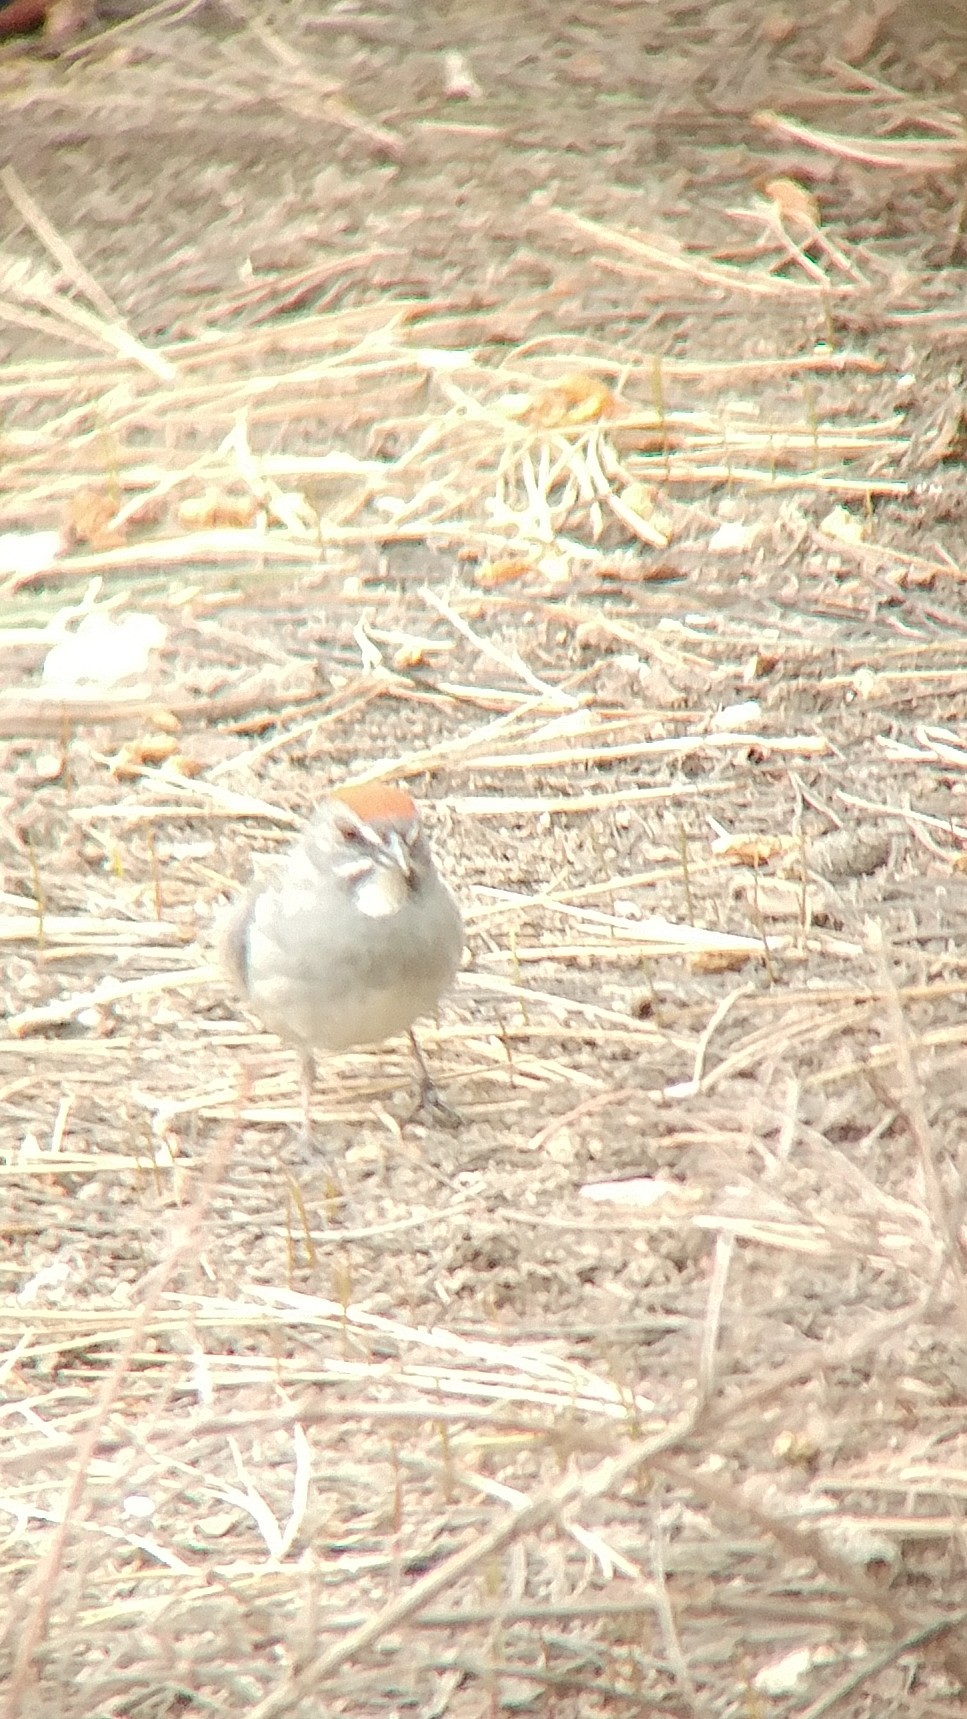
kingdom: Animalia
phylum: Chordata
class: Aves
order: Passeriformes
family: Passerellidae
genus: Pipilo
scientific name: Pipilo chlorurus
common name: Green-tailed towhee
